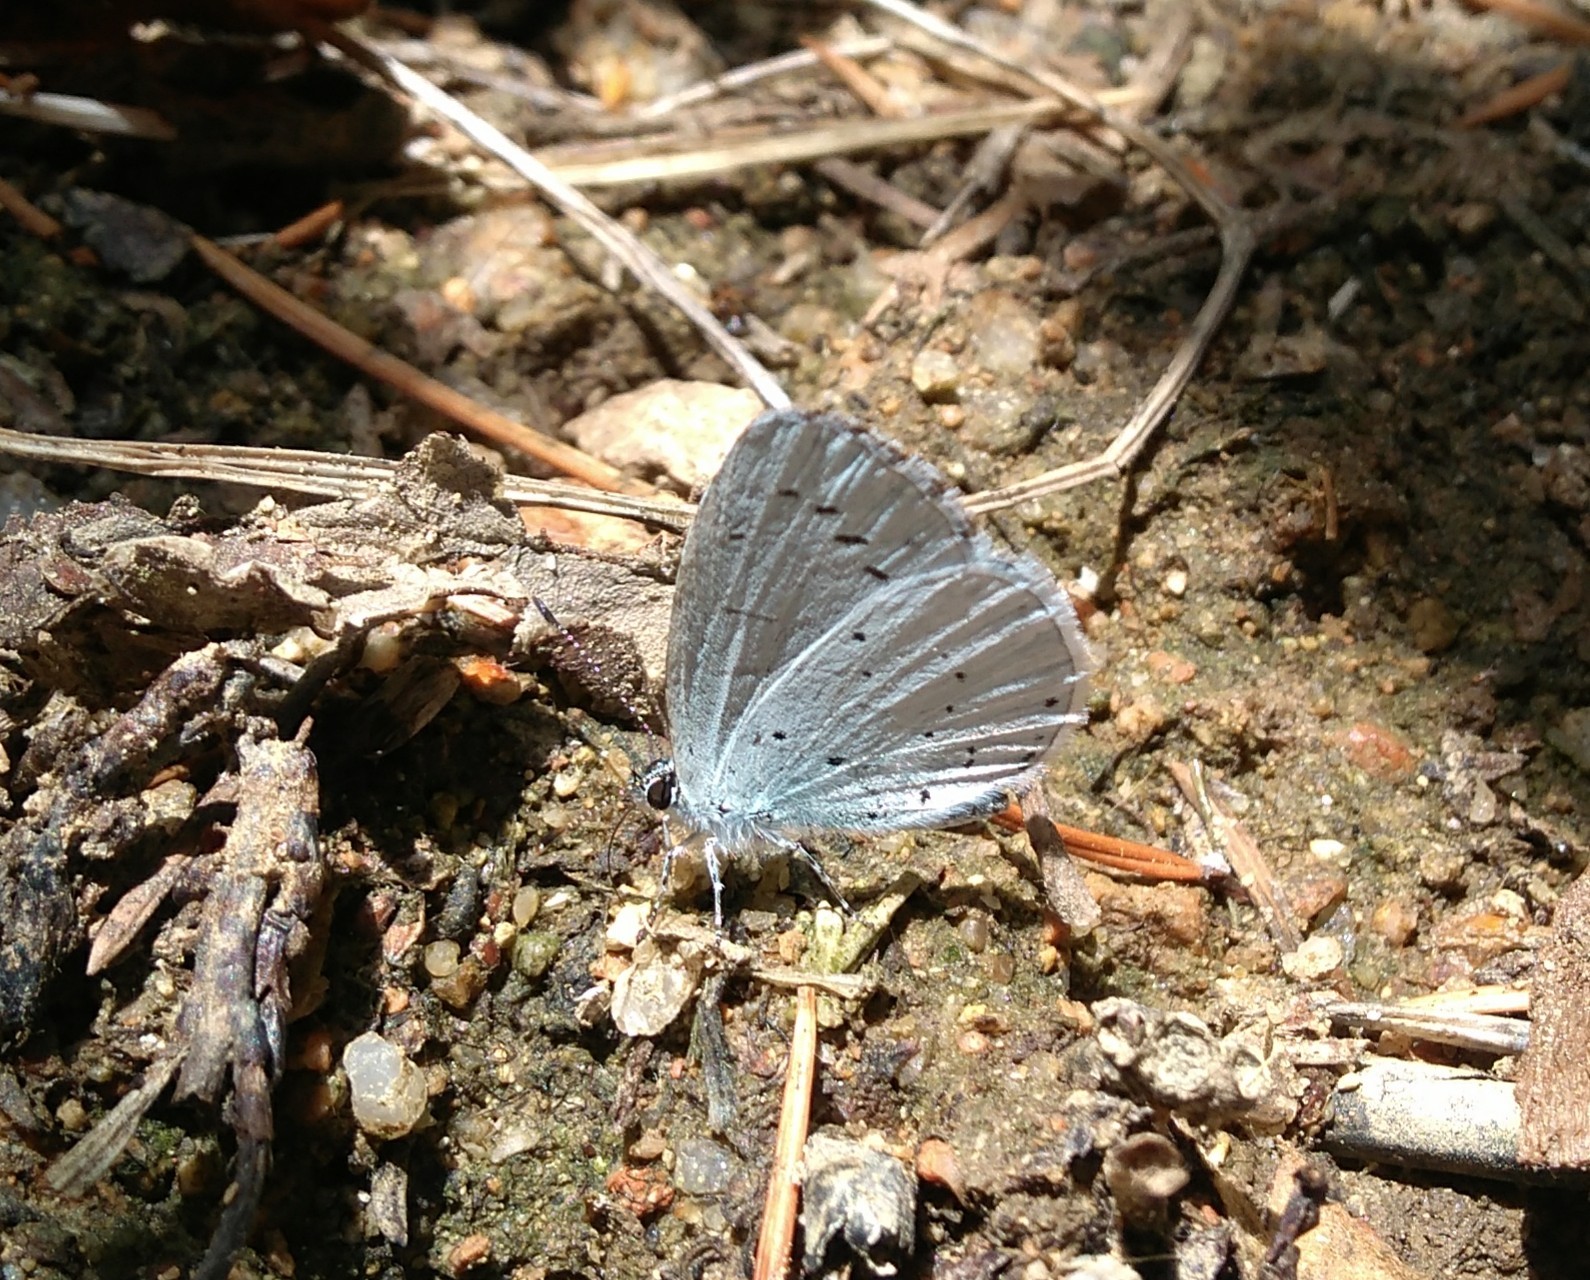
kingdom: Animalia
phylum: Arthropoda
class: Insecta
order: Lepidoptera
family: Lycaenidae
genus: Celastrina
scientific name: Celastrina argiolus
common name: Holly blue
